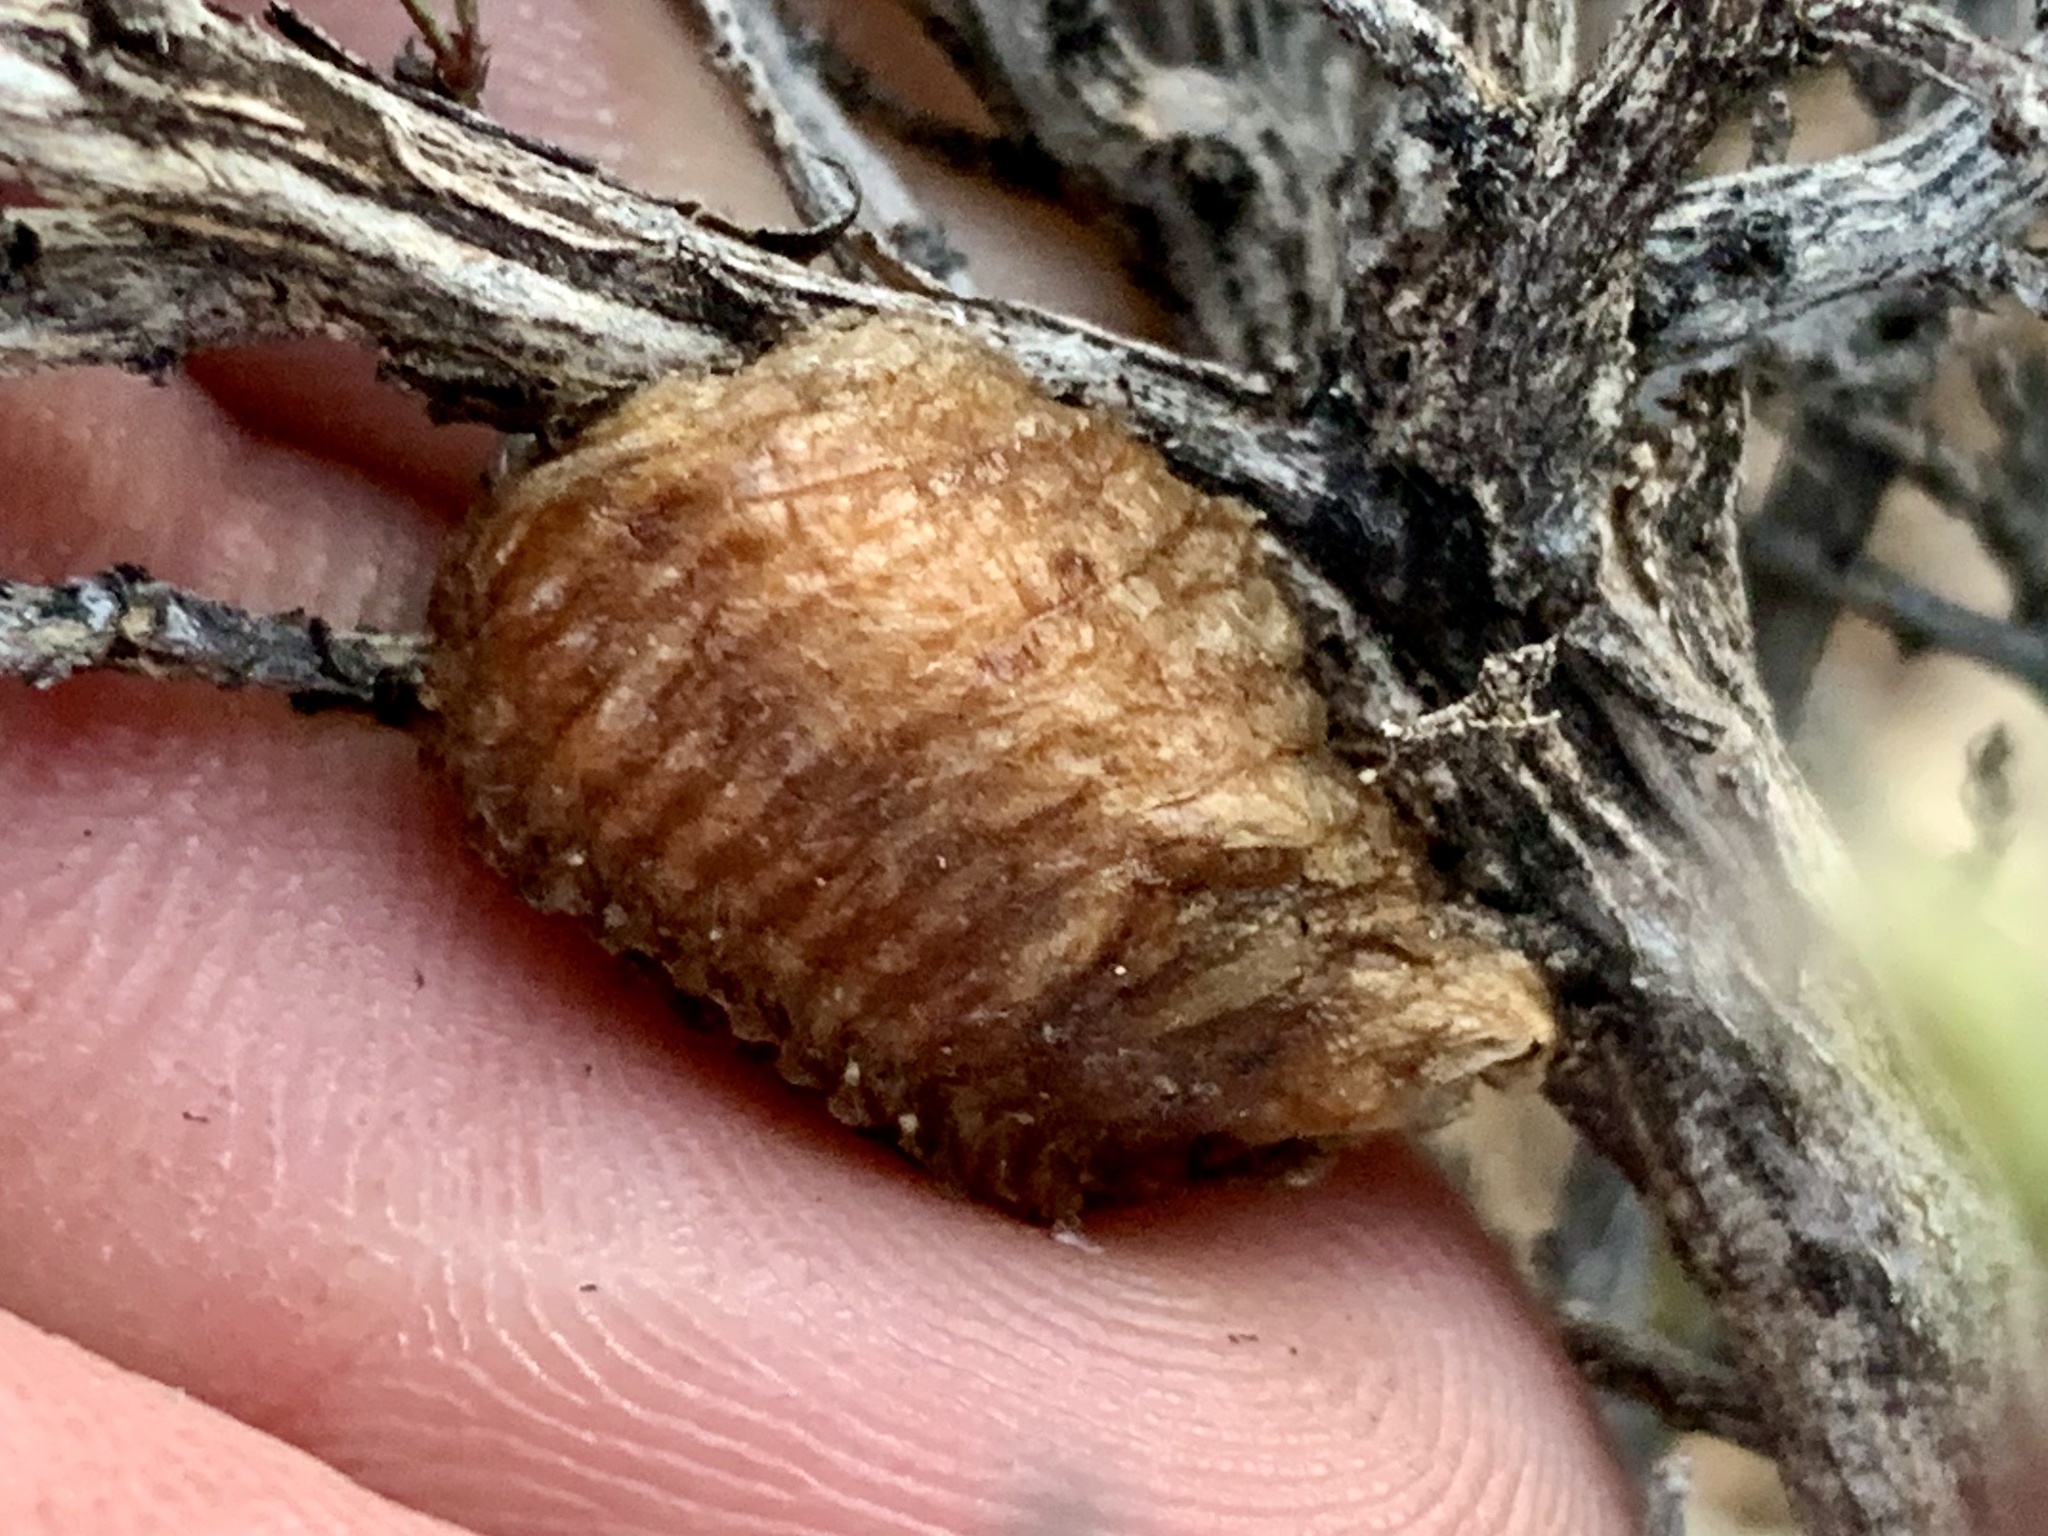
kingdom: Animalia
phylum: Arthropoda
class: Insecta
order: Mantodea
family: Mantidae
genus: Stagmomantis
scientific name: Stagmomantis limbata
